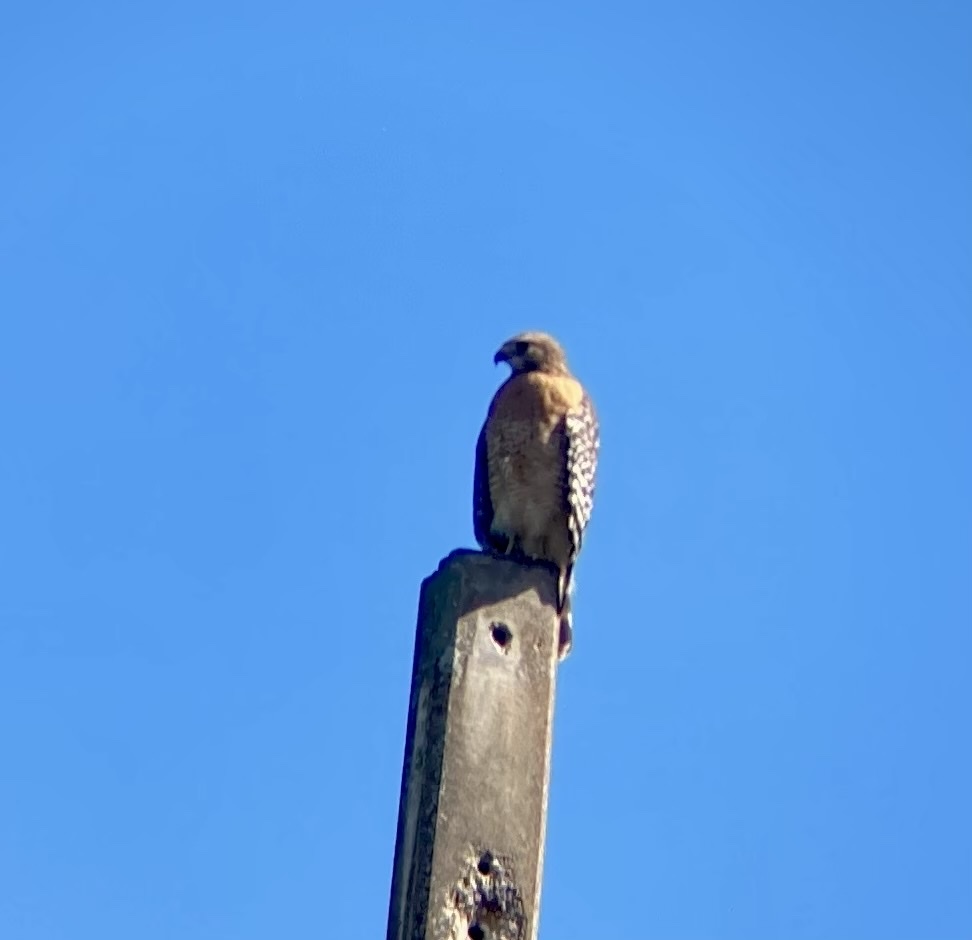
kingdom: Animalia
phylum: Chordata
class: Aves
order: Accipitriformes
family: Accipitridae
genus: Buteo
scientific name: Buteo lineatus
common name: Red-shouldered hawk
